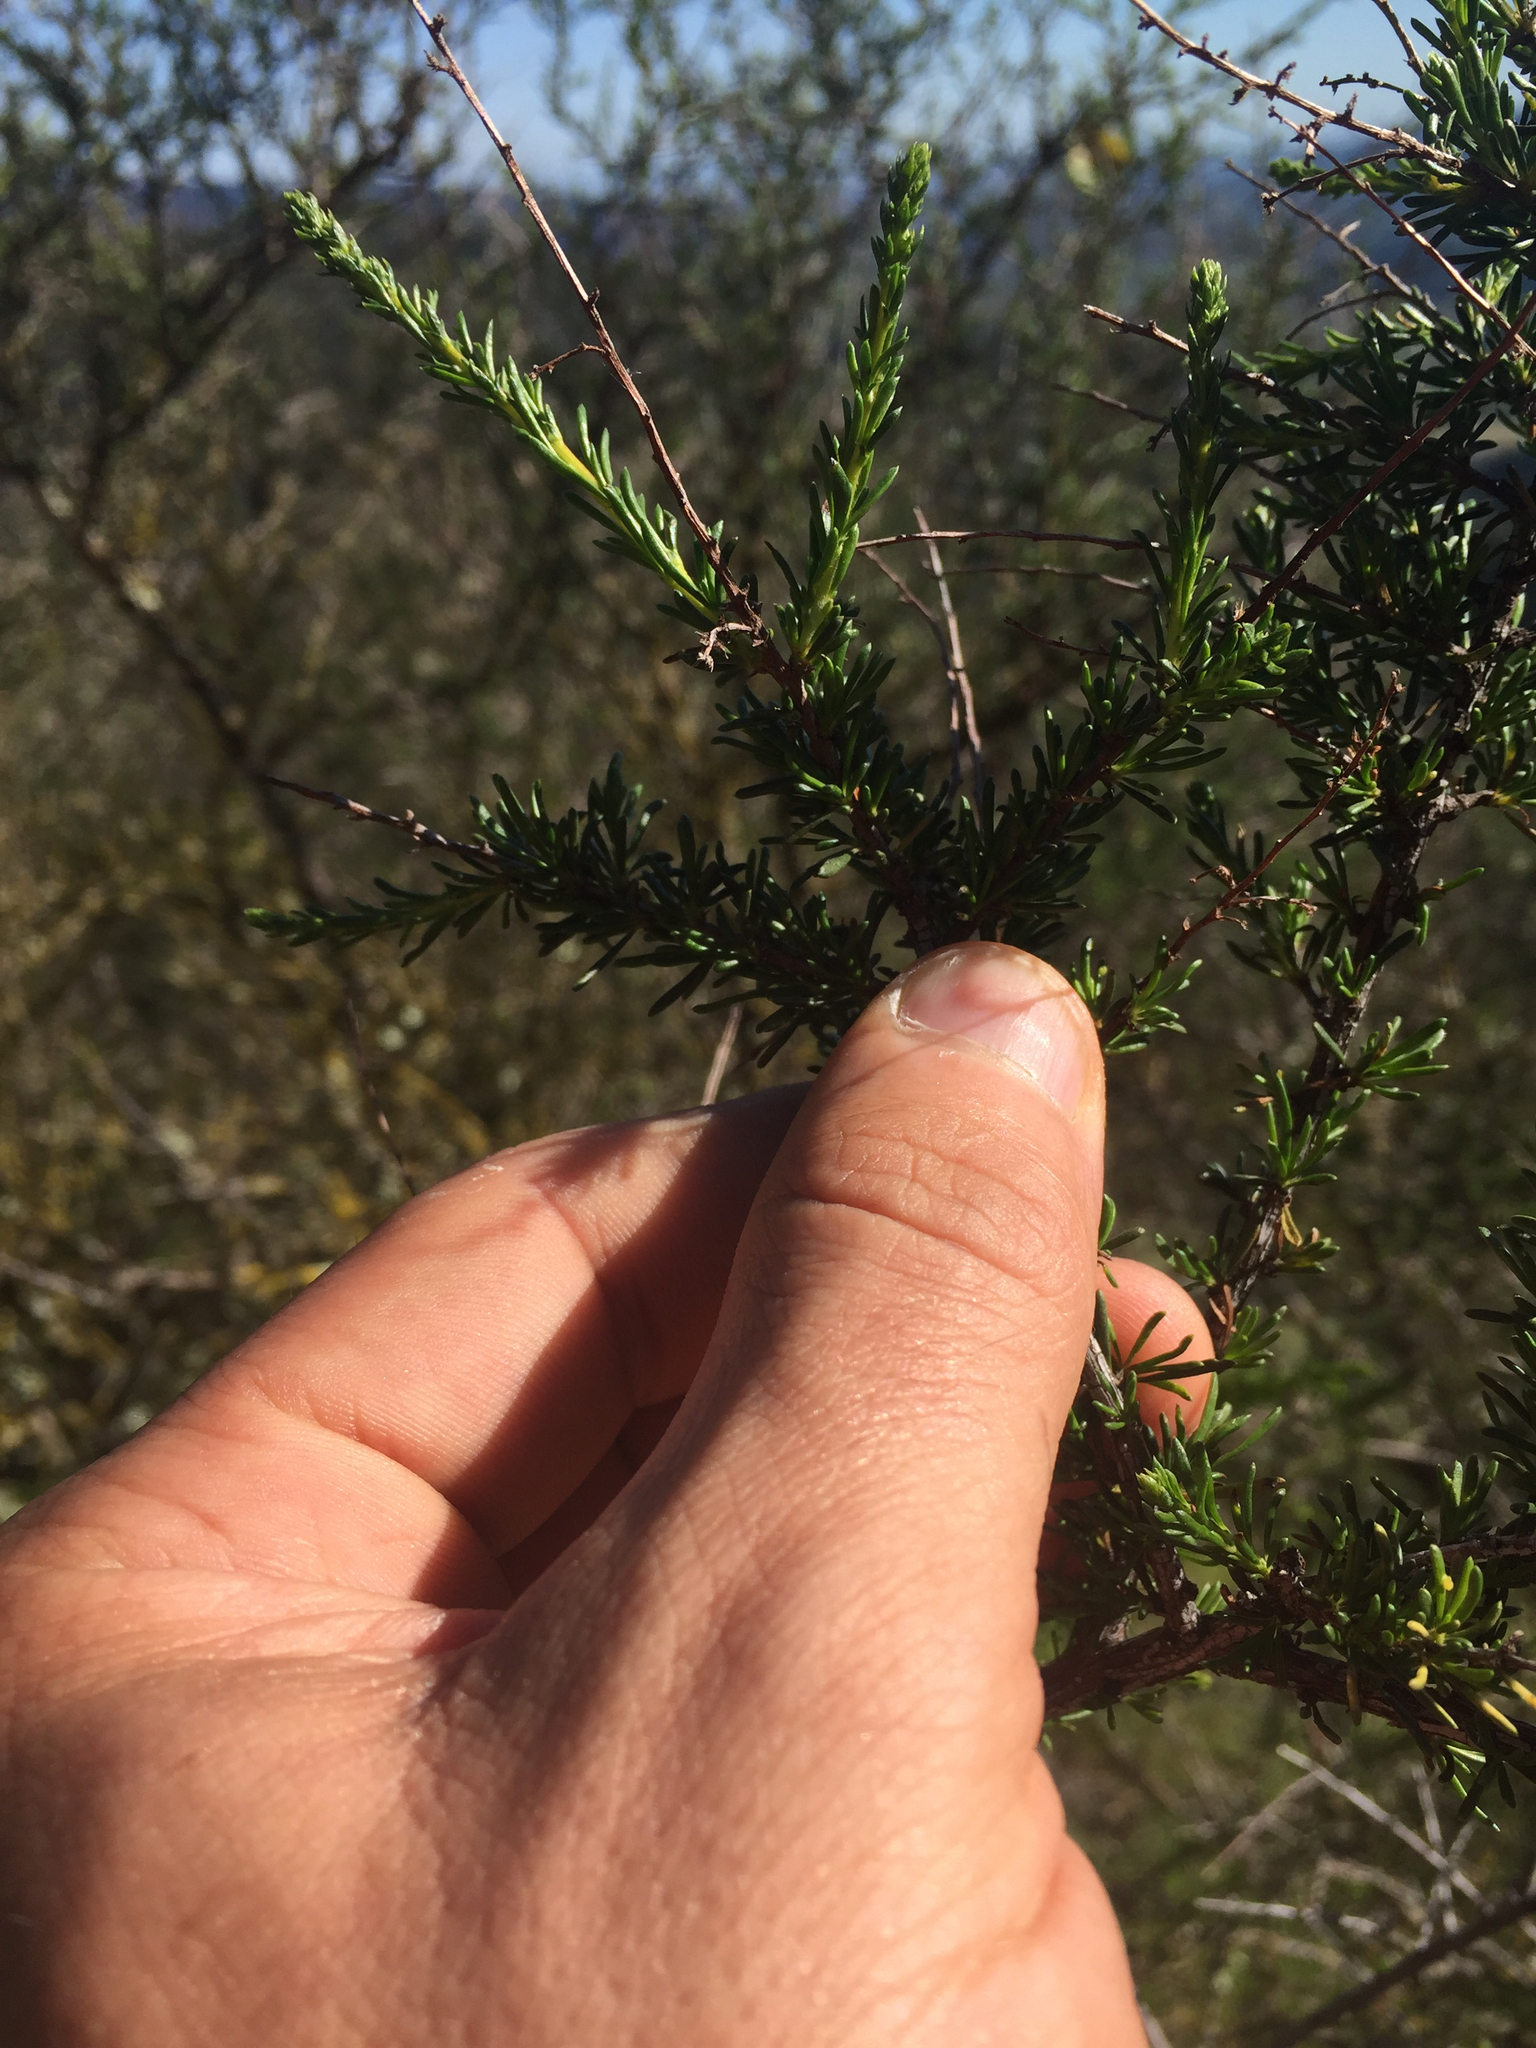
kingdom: Plantae
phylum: Tracheophyta
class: Magnoliopsida
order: Rosales
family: Rosaceae
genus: Adenostoma
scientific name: Adenostoma fasciculatum
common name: Chamise
